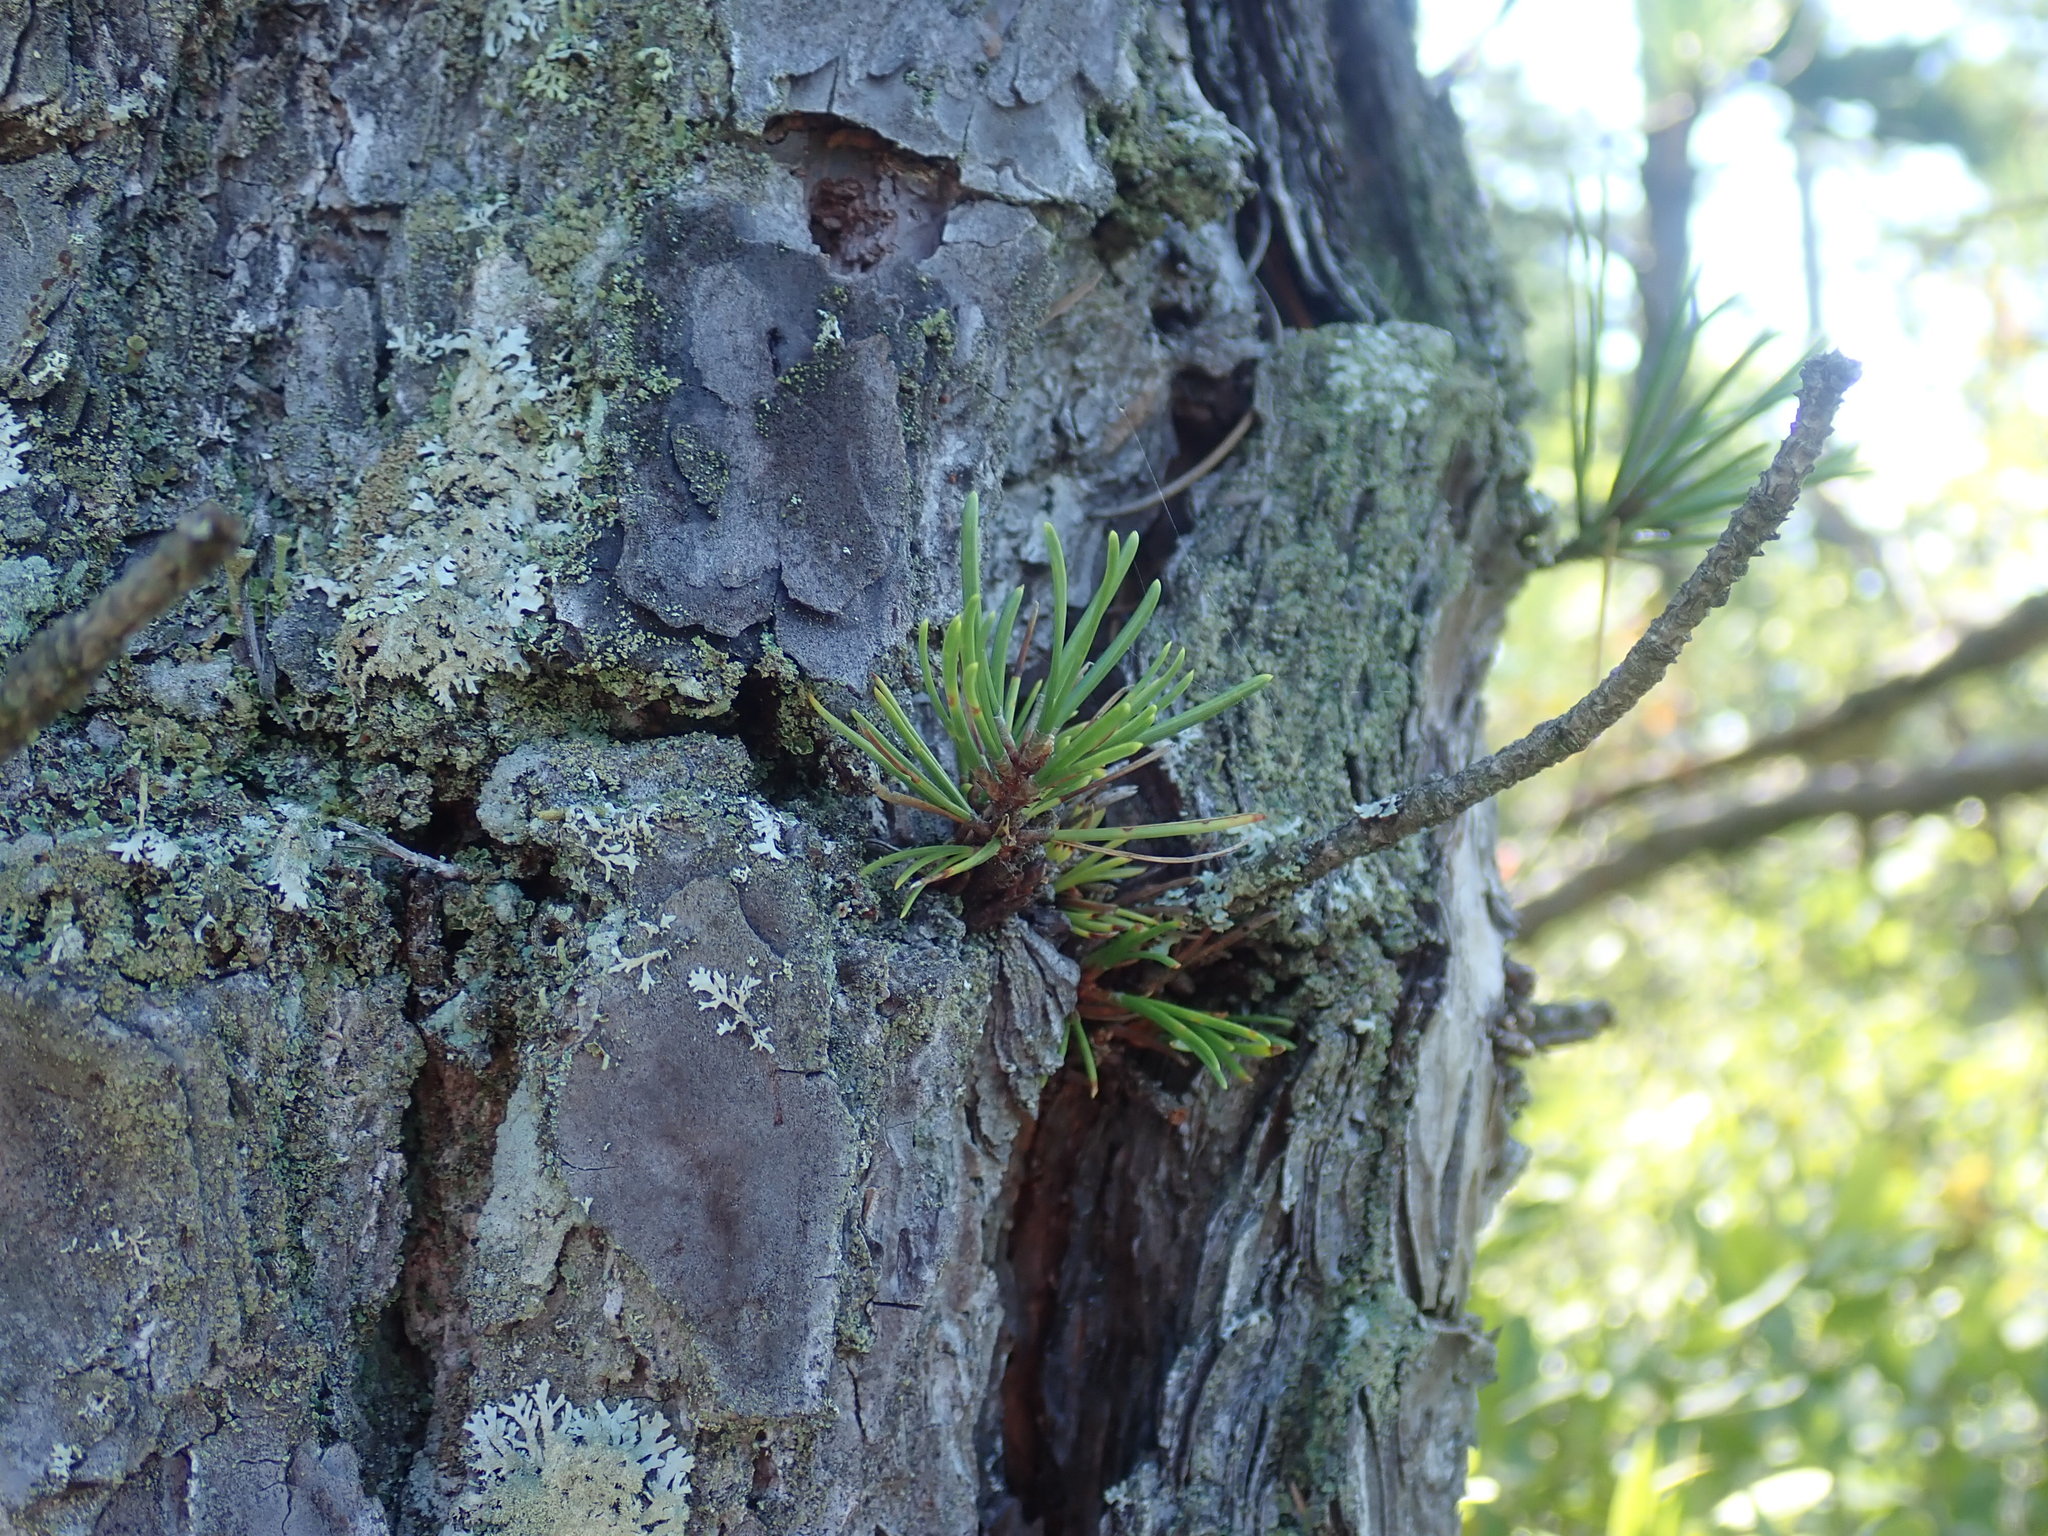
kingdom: Plantae
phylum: Tracheophyta
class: Pinopsida
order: Pinales
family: Pinaceae
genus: Pinus
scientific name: Pinus rigida
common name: Pitch pine
